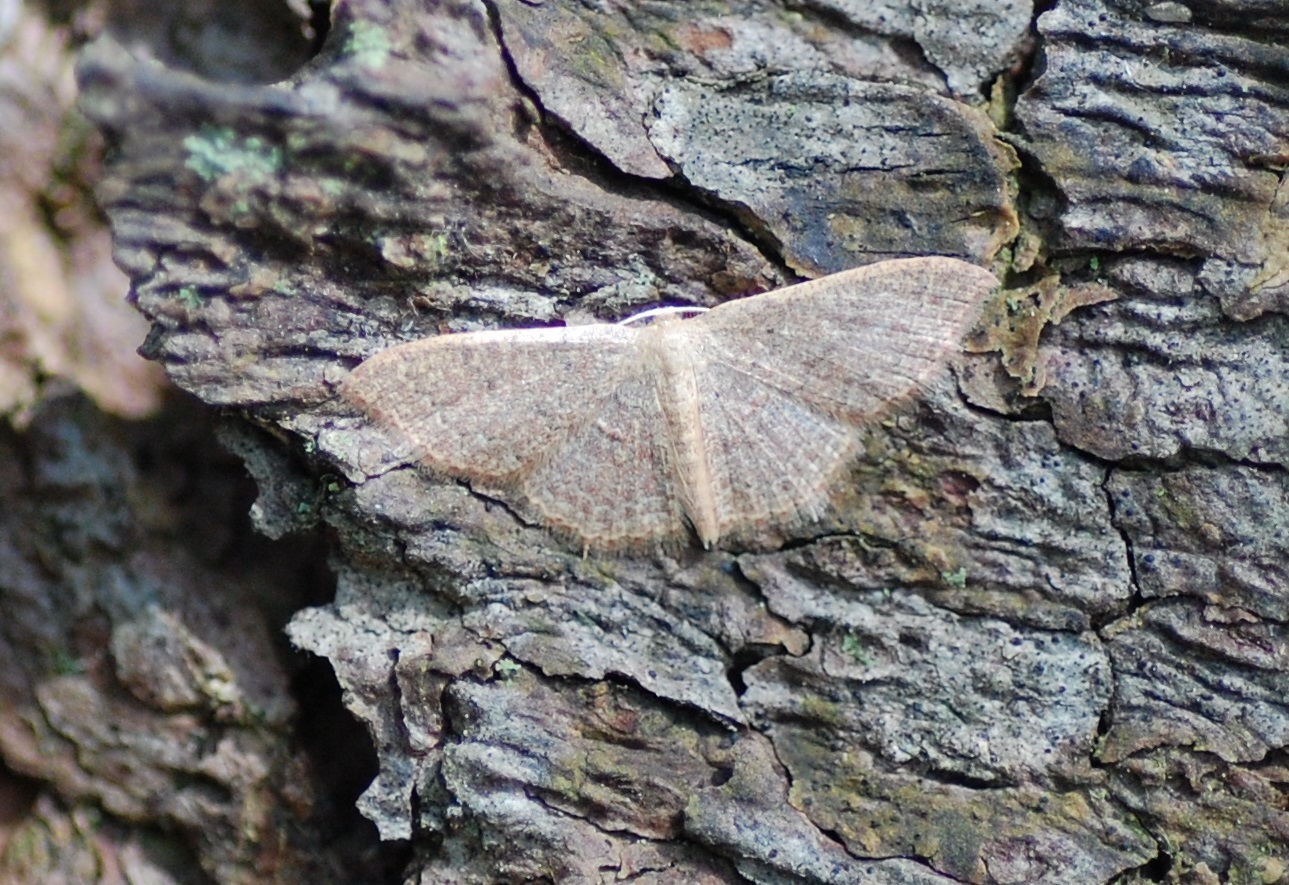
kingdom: Animalia
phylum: Arthropoda
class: Insecta
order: Lepidoptera
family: Geometridae
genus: Pleuroprucha
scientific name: Pleuroprucha insulsaria
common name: Common tan wave
